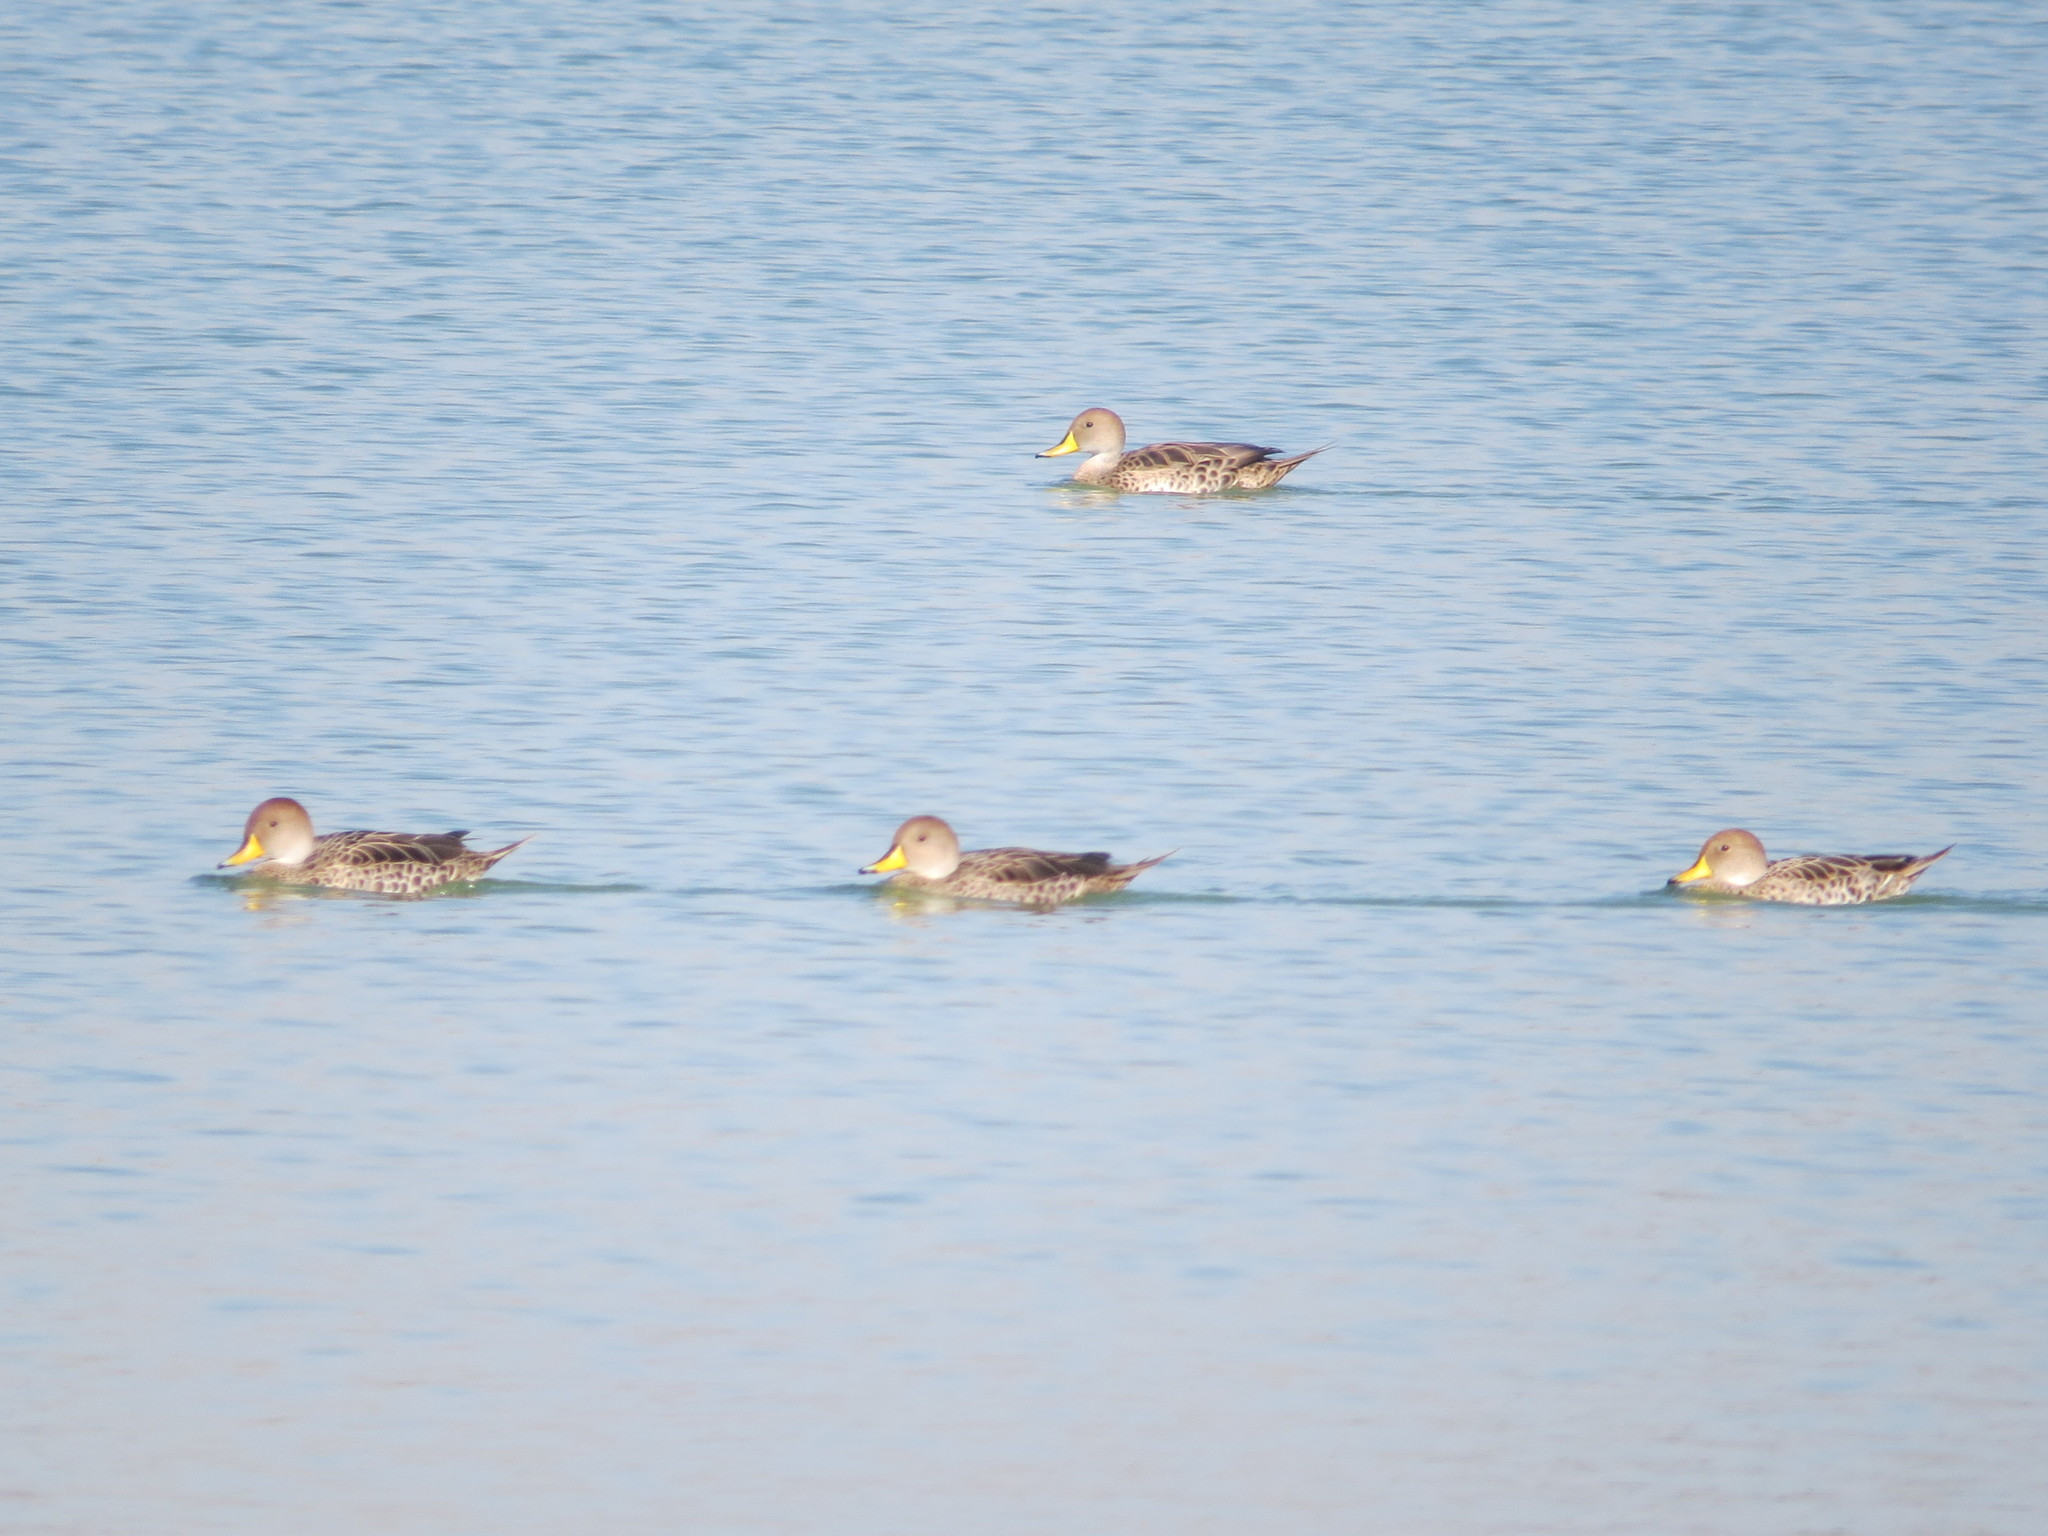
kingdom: Animalia
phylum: Chordata
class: Aves
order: Anseriformes
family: Anatidae
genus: Anas
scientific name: Anas georgica
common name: Yellow-billed pintail
